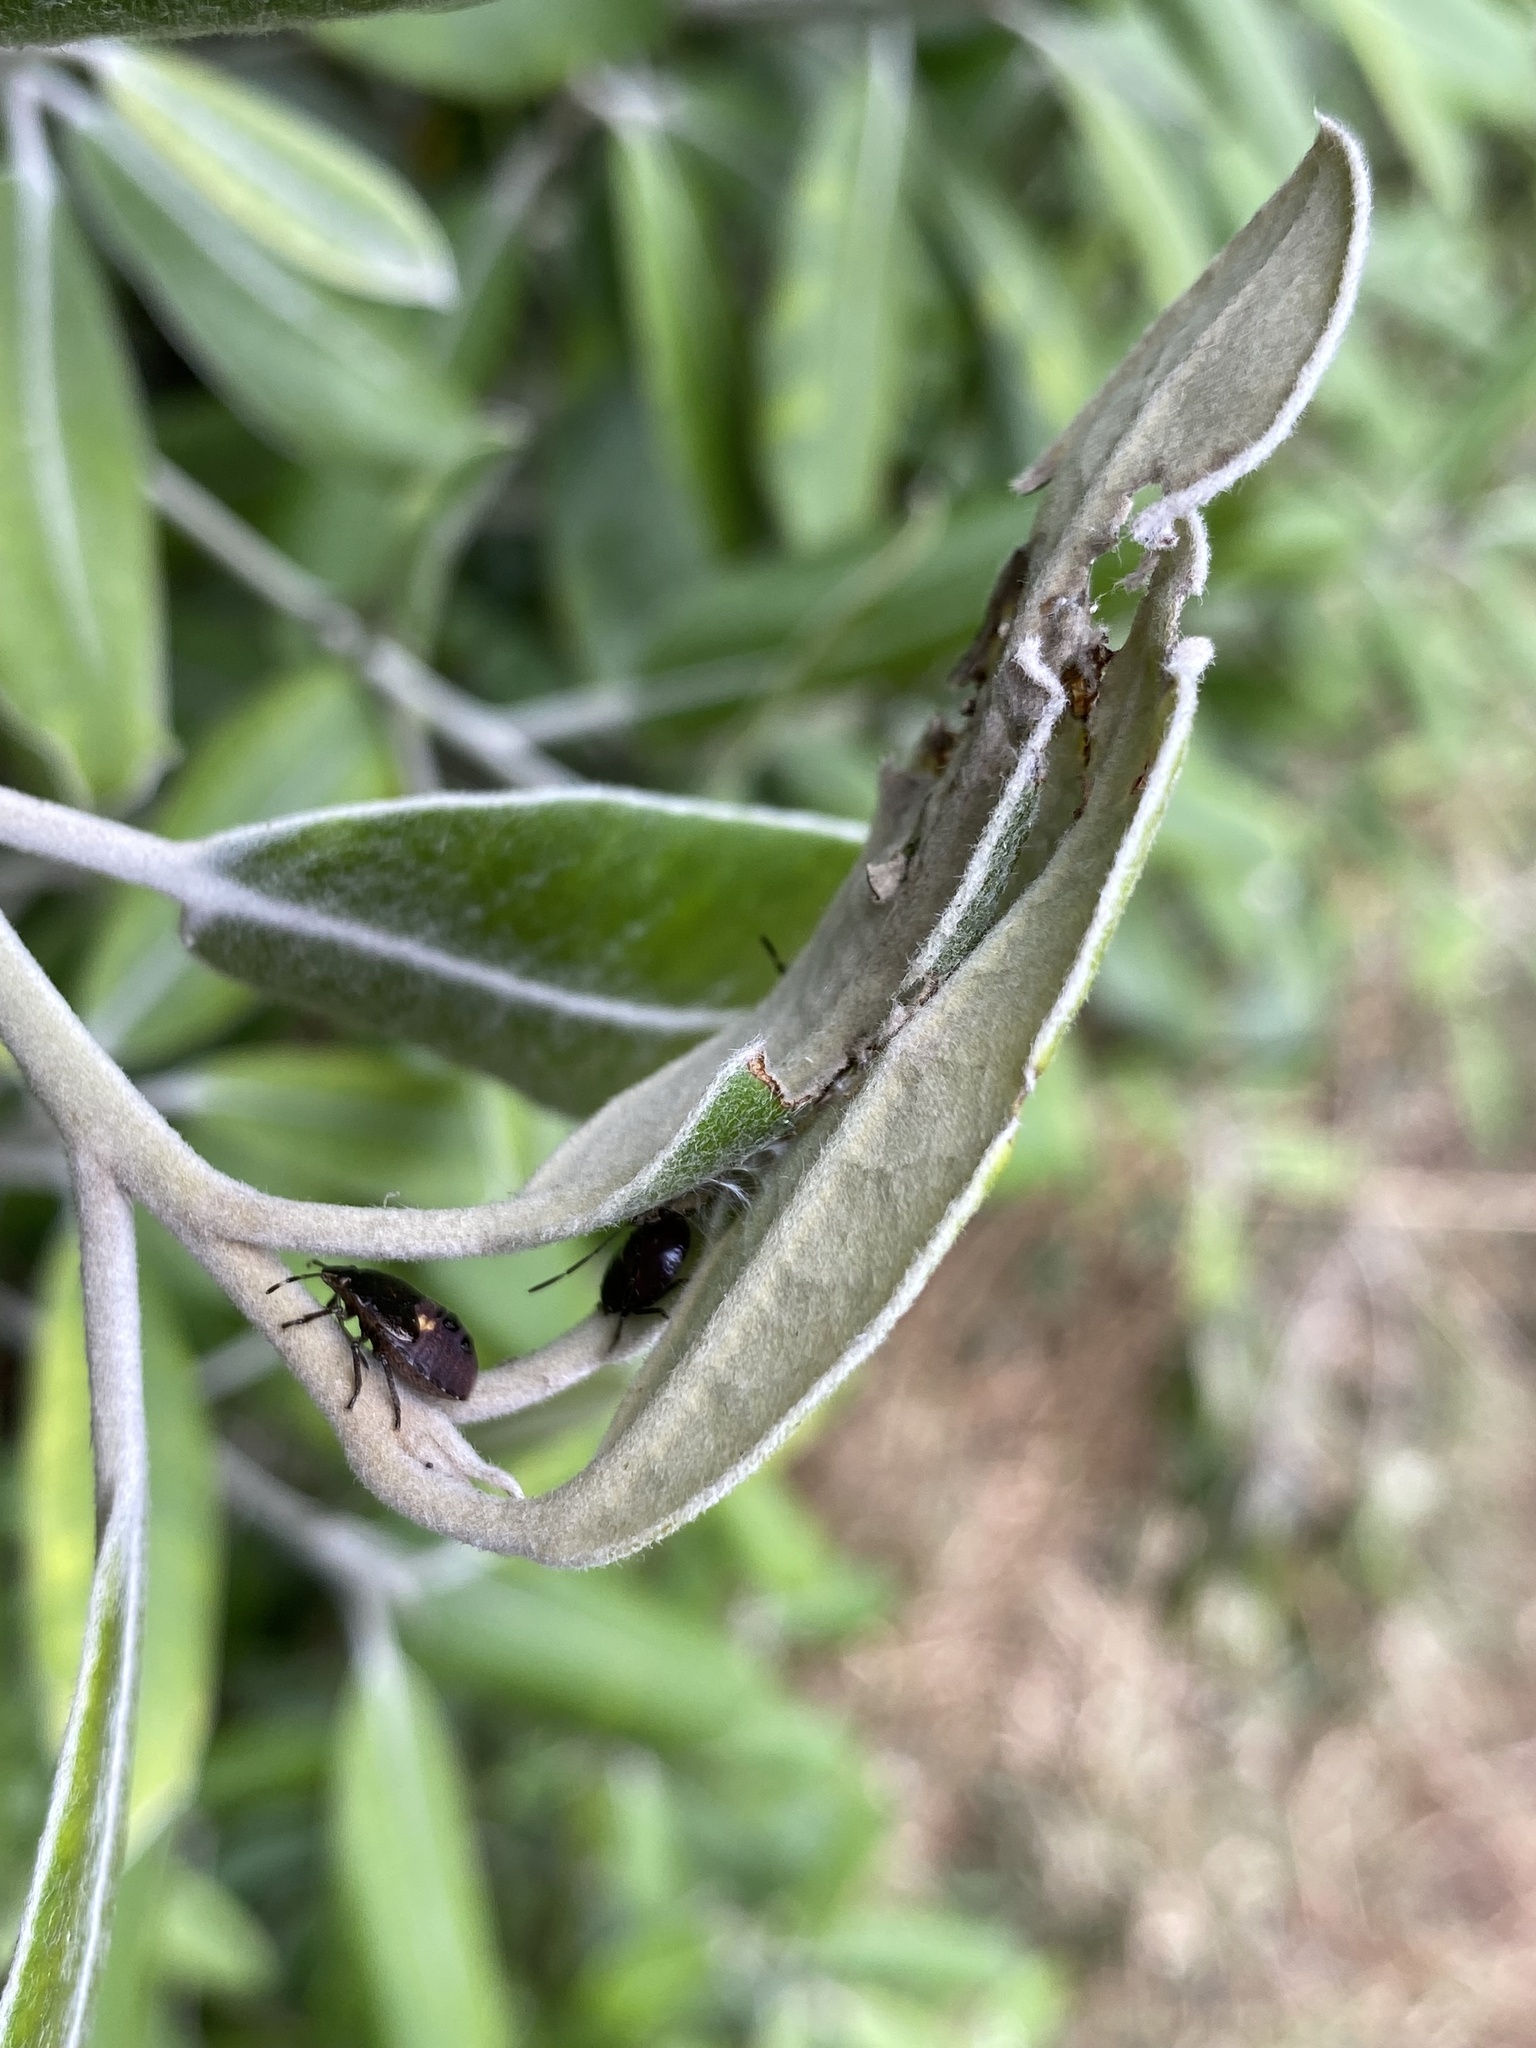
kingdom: Animalia
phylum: Arthropoda
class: Insecta
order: Hemiptera
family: Pentatomidae
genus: Monteithiella
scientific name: Monteithiella
